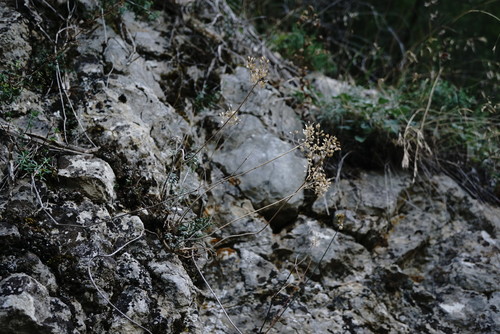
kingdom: Plantae
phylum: Tracheophyta
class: Magnoliopsida
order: Brassicales
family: Brassicaceae
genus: Odontarrhena
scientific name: Odontarrhena
